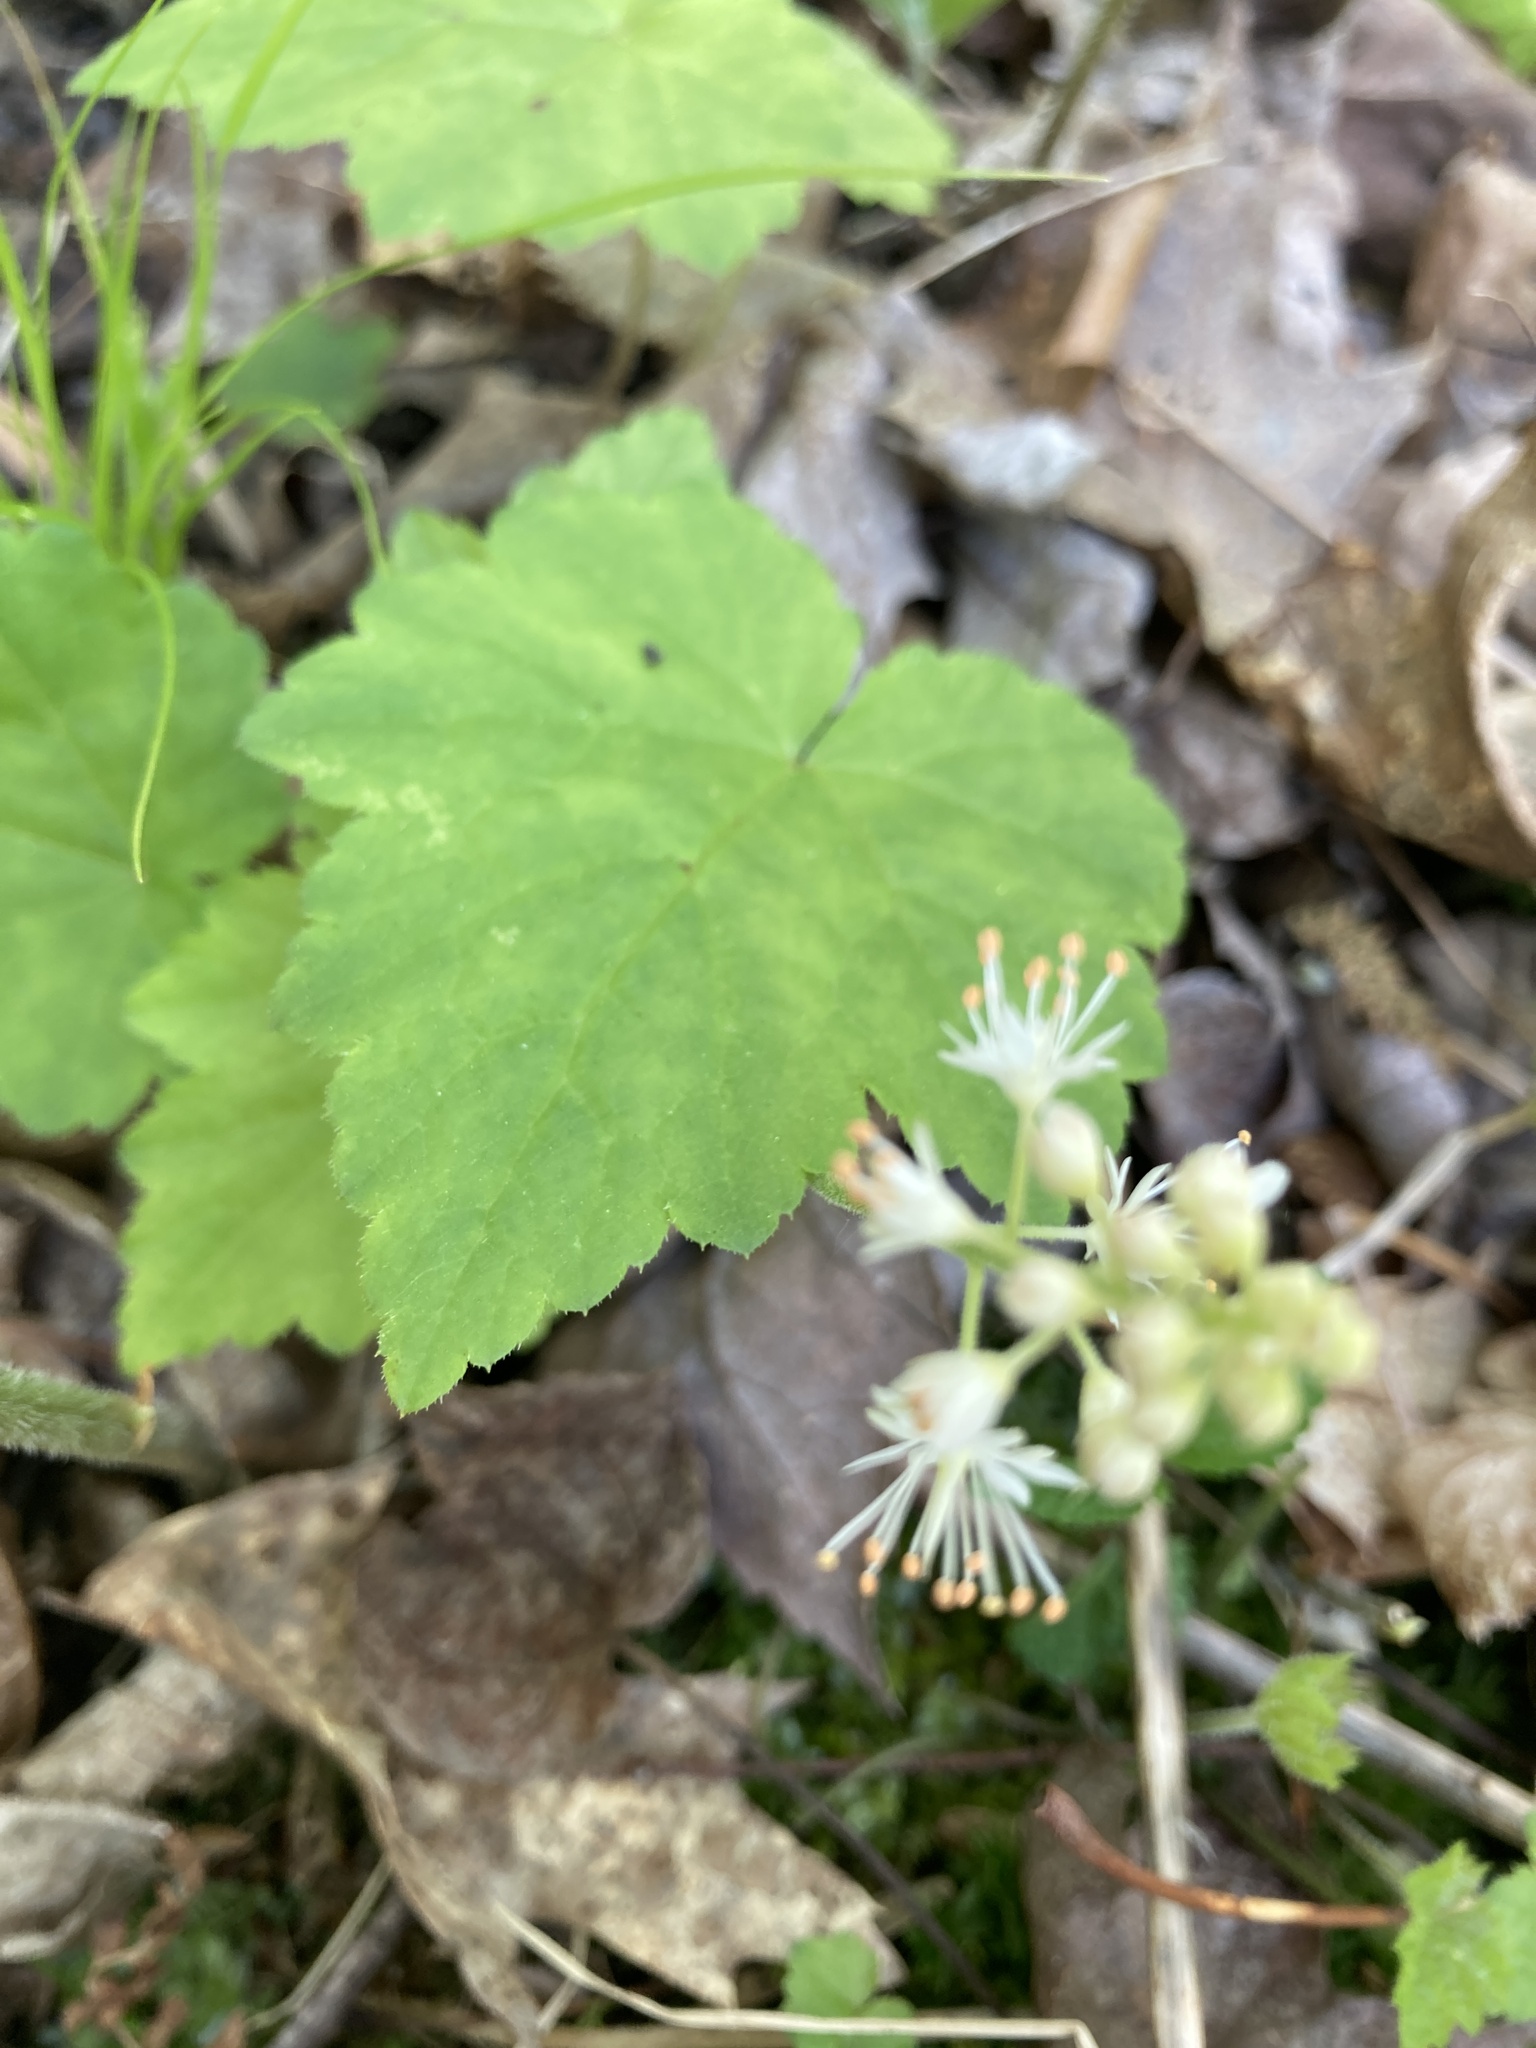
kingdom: Plantae
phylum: Tracheophyta
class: Magnoliopsida
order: Saxifragales
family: Saxifragaceae
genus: Tiarella
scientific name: Tiarella stolonifera
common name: Stoloniferous foamflower
